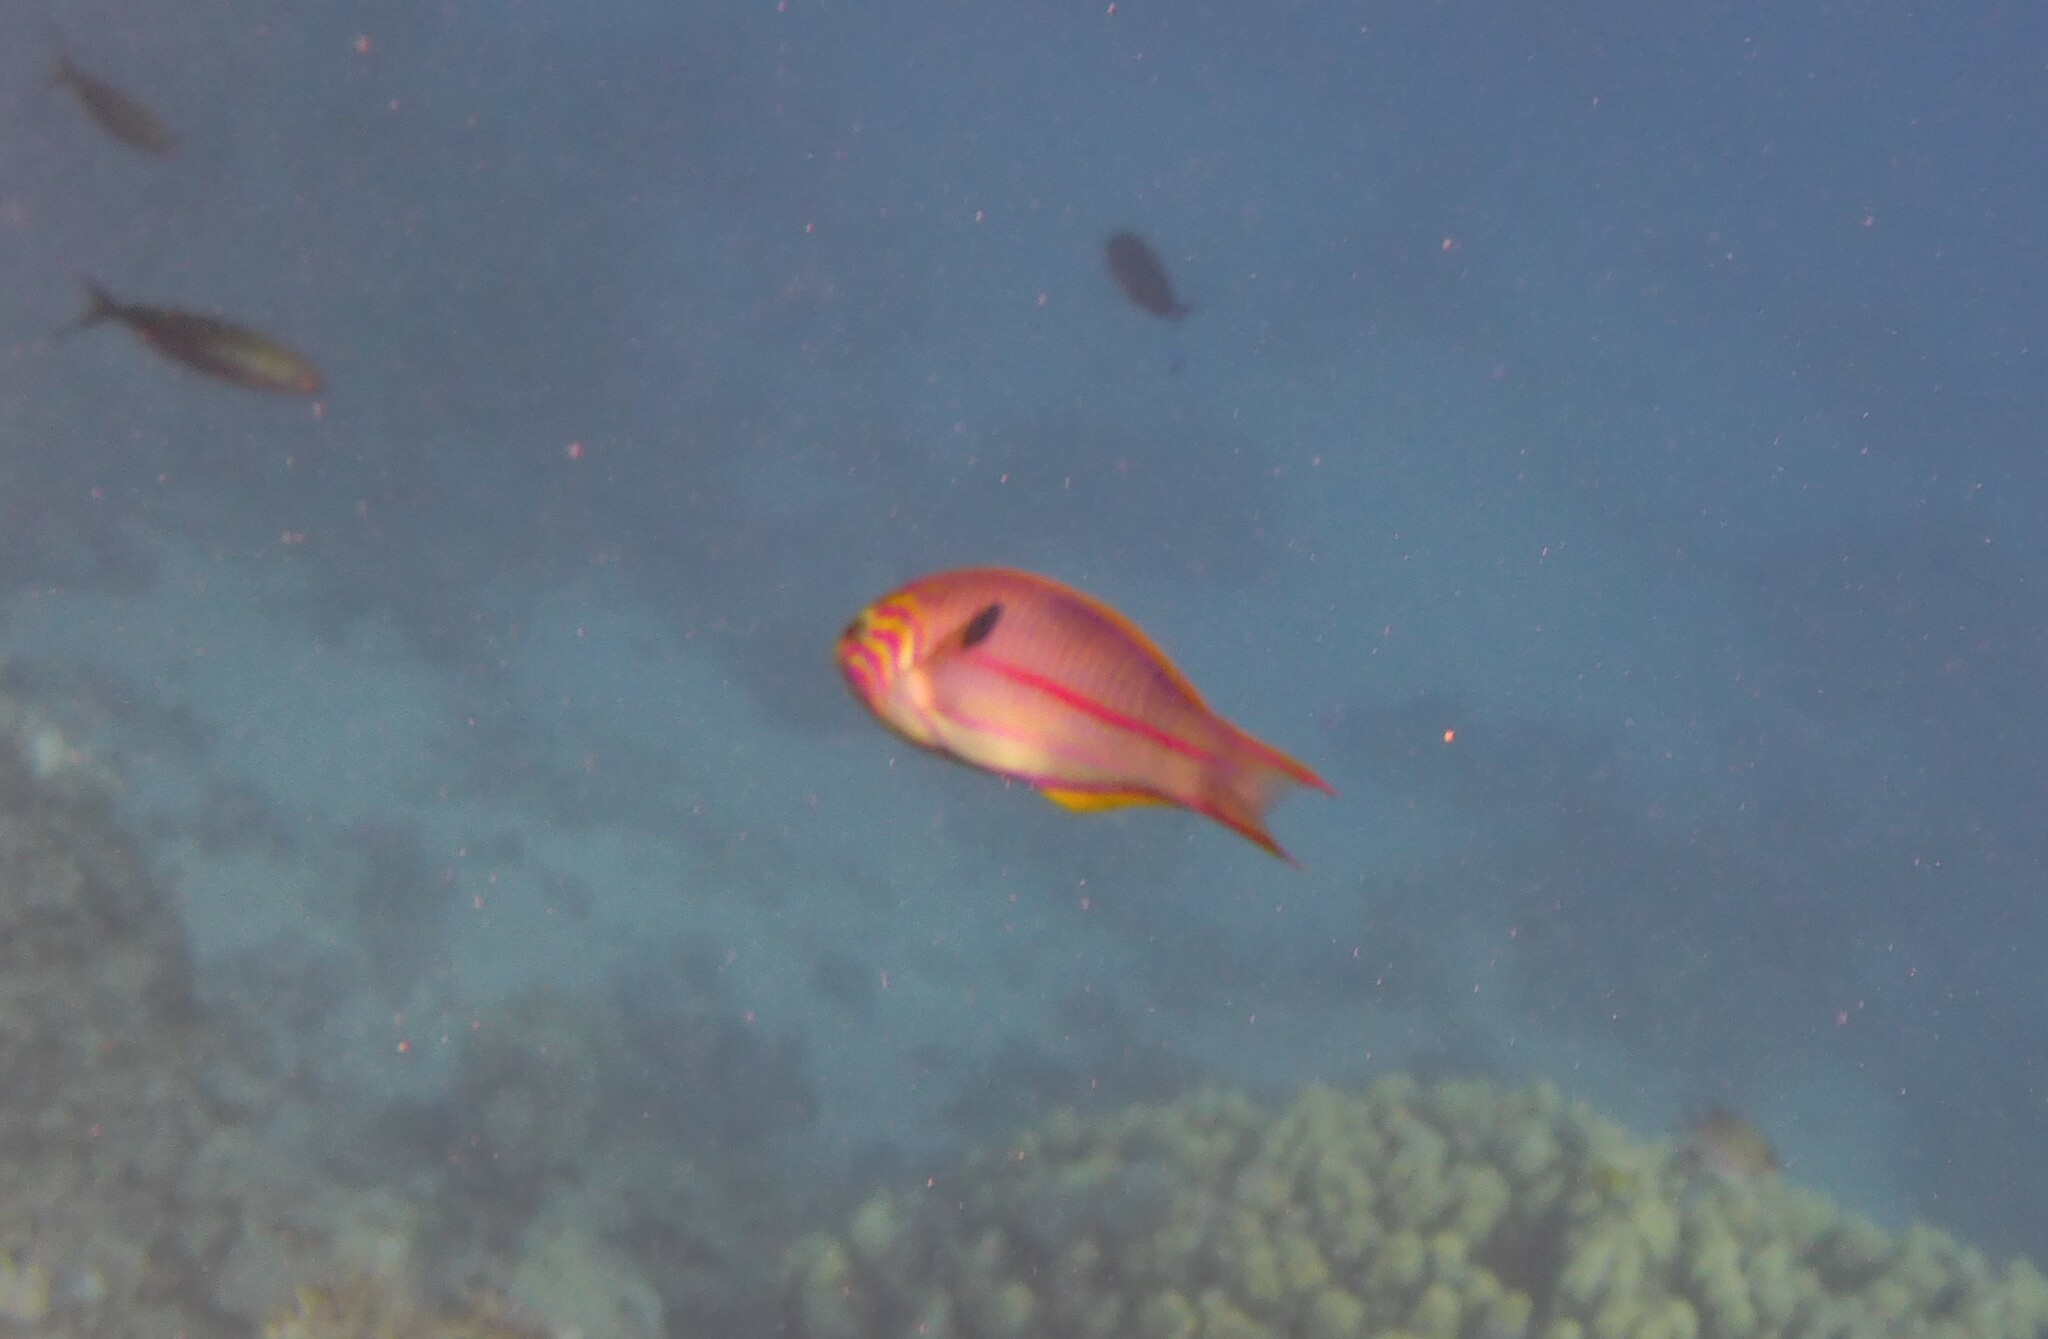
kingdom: Animalia
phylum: Chordata
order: Perciformes
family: Labridae
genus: Thalassoma
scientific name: Thalassoma rueppellii
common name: Klunzinger's wrasse
